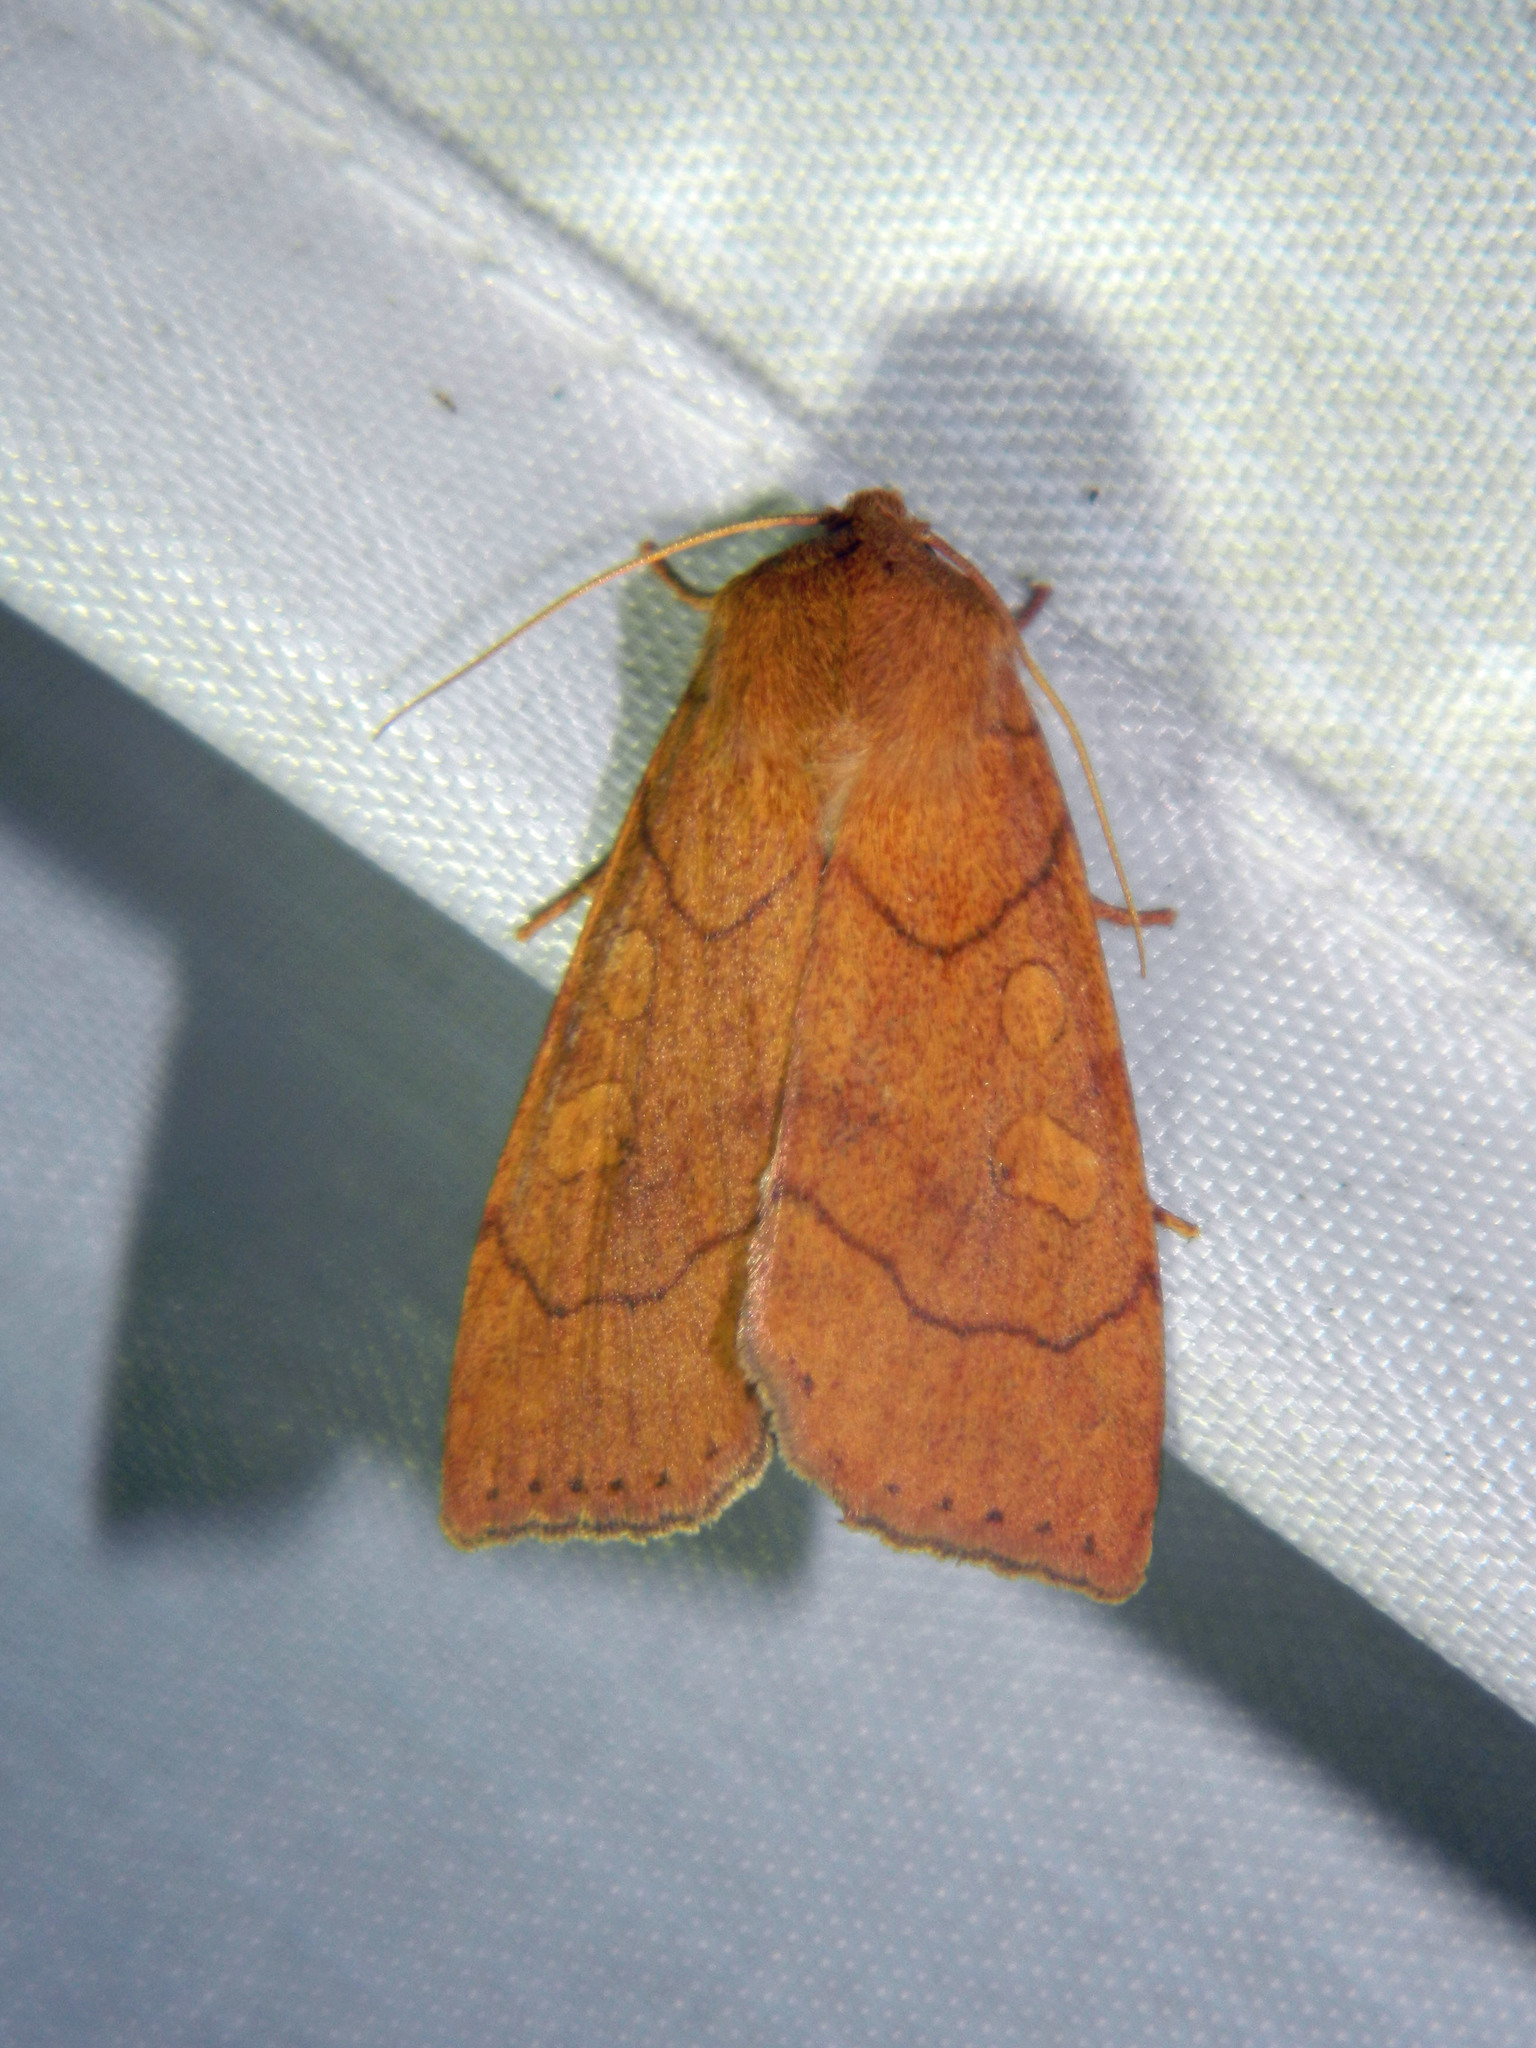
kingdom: Animalia
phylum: Arthropoda
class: Insecta
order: Lepidoptera
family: Noctuidae
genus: Enargia
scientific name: Enargia decolor
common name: Aspen twoleaf tier moth
